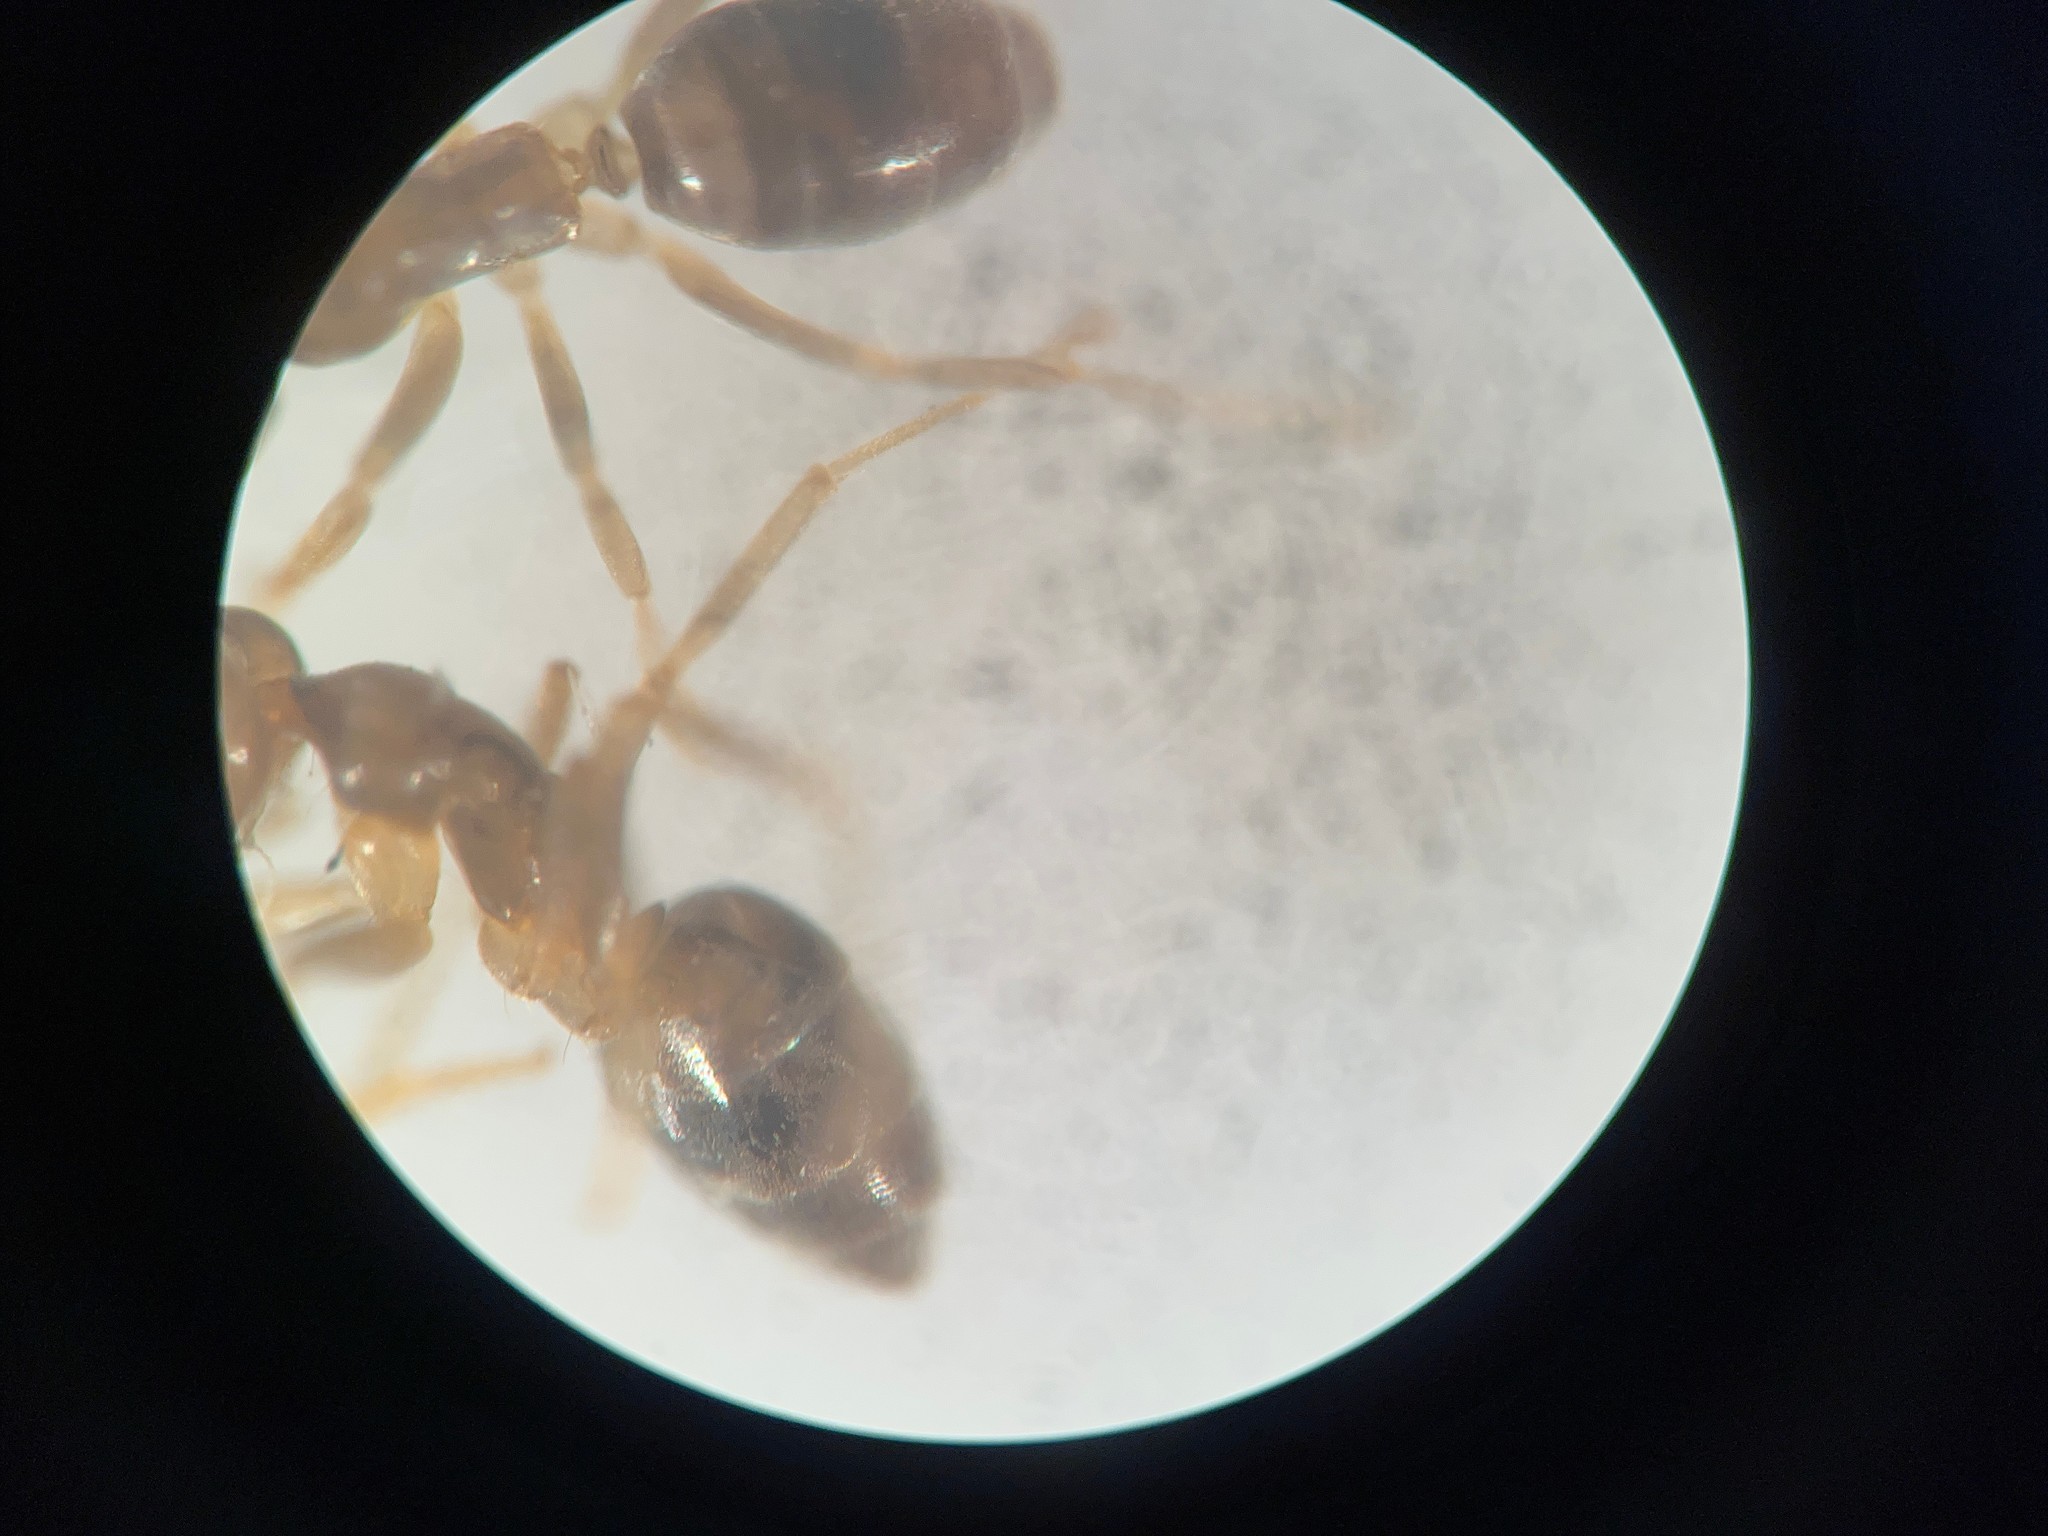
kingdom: Animalia
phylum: Arthropoda
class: Insecta
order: Hymenoptera
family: Formicidae
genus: Doleromyrma
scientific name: Doleromyrma darwiniana
